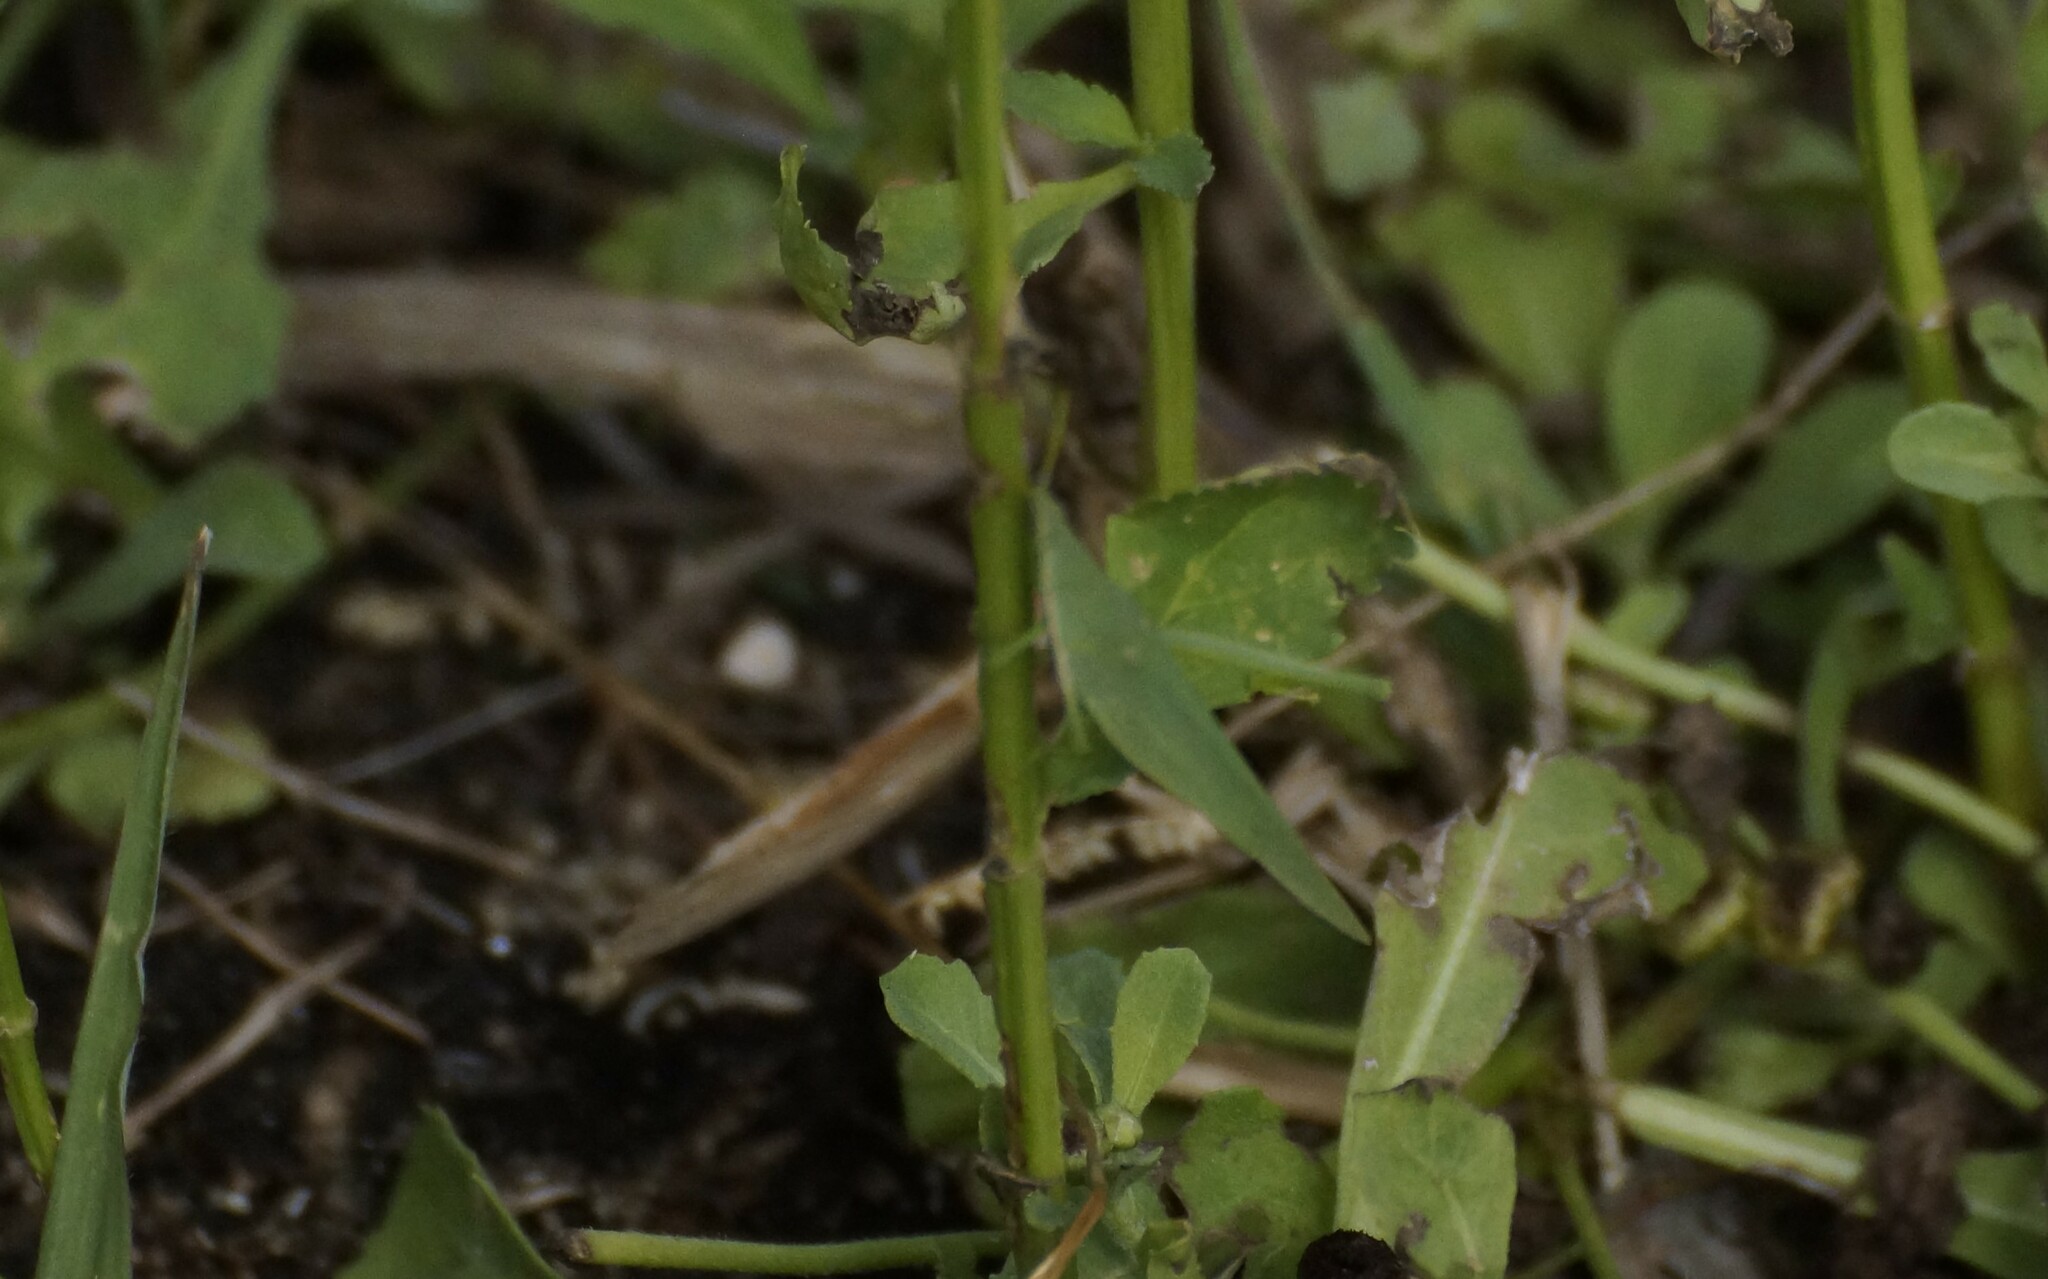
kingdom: Animalia
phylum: Arthropoda
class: Insecta
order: Orthoptera
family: Pyrgomorphidae
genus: Atractomorpha
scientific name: Atractomorpha similis
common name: Northern grass pyrgomorph
